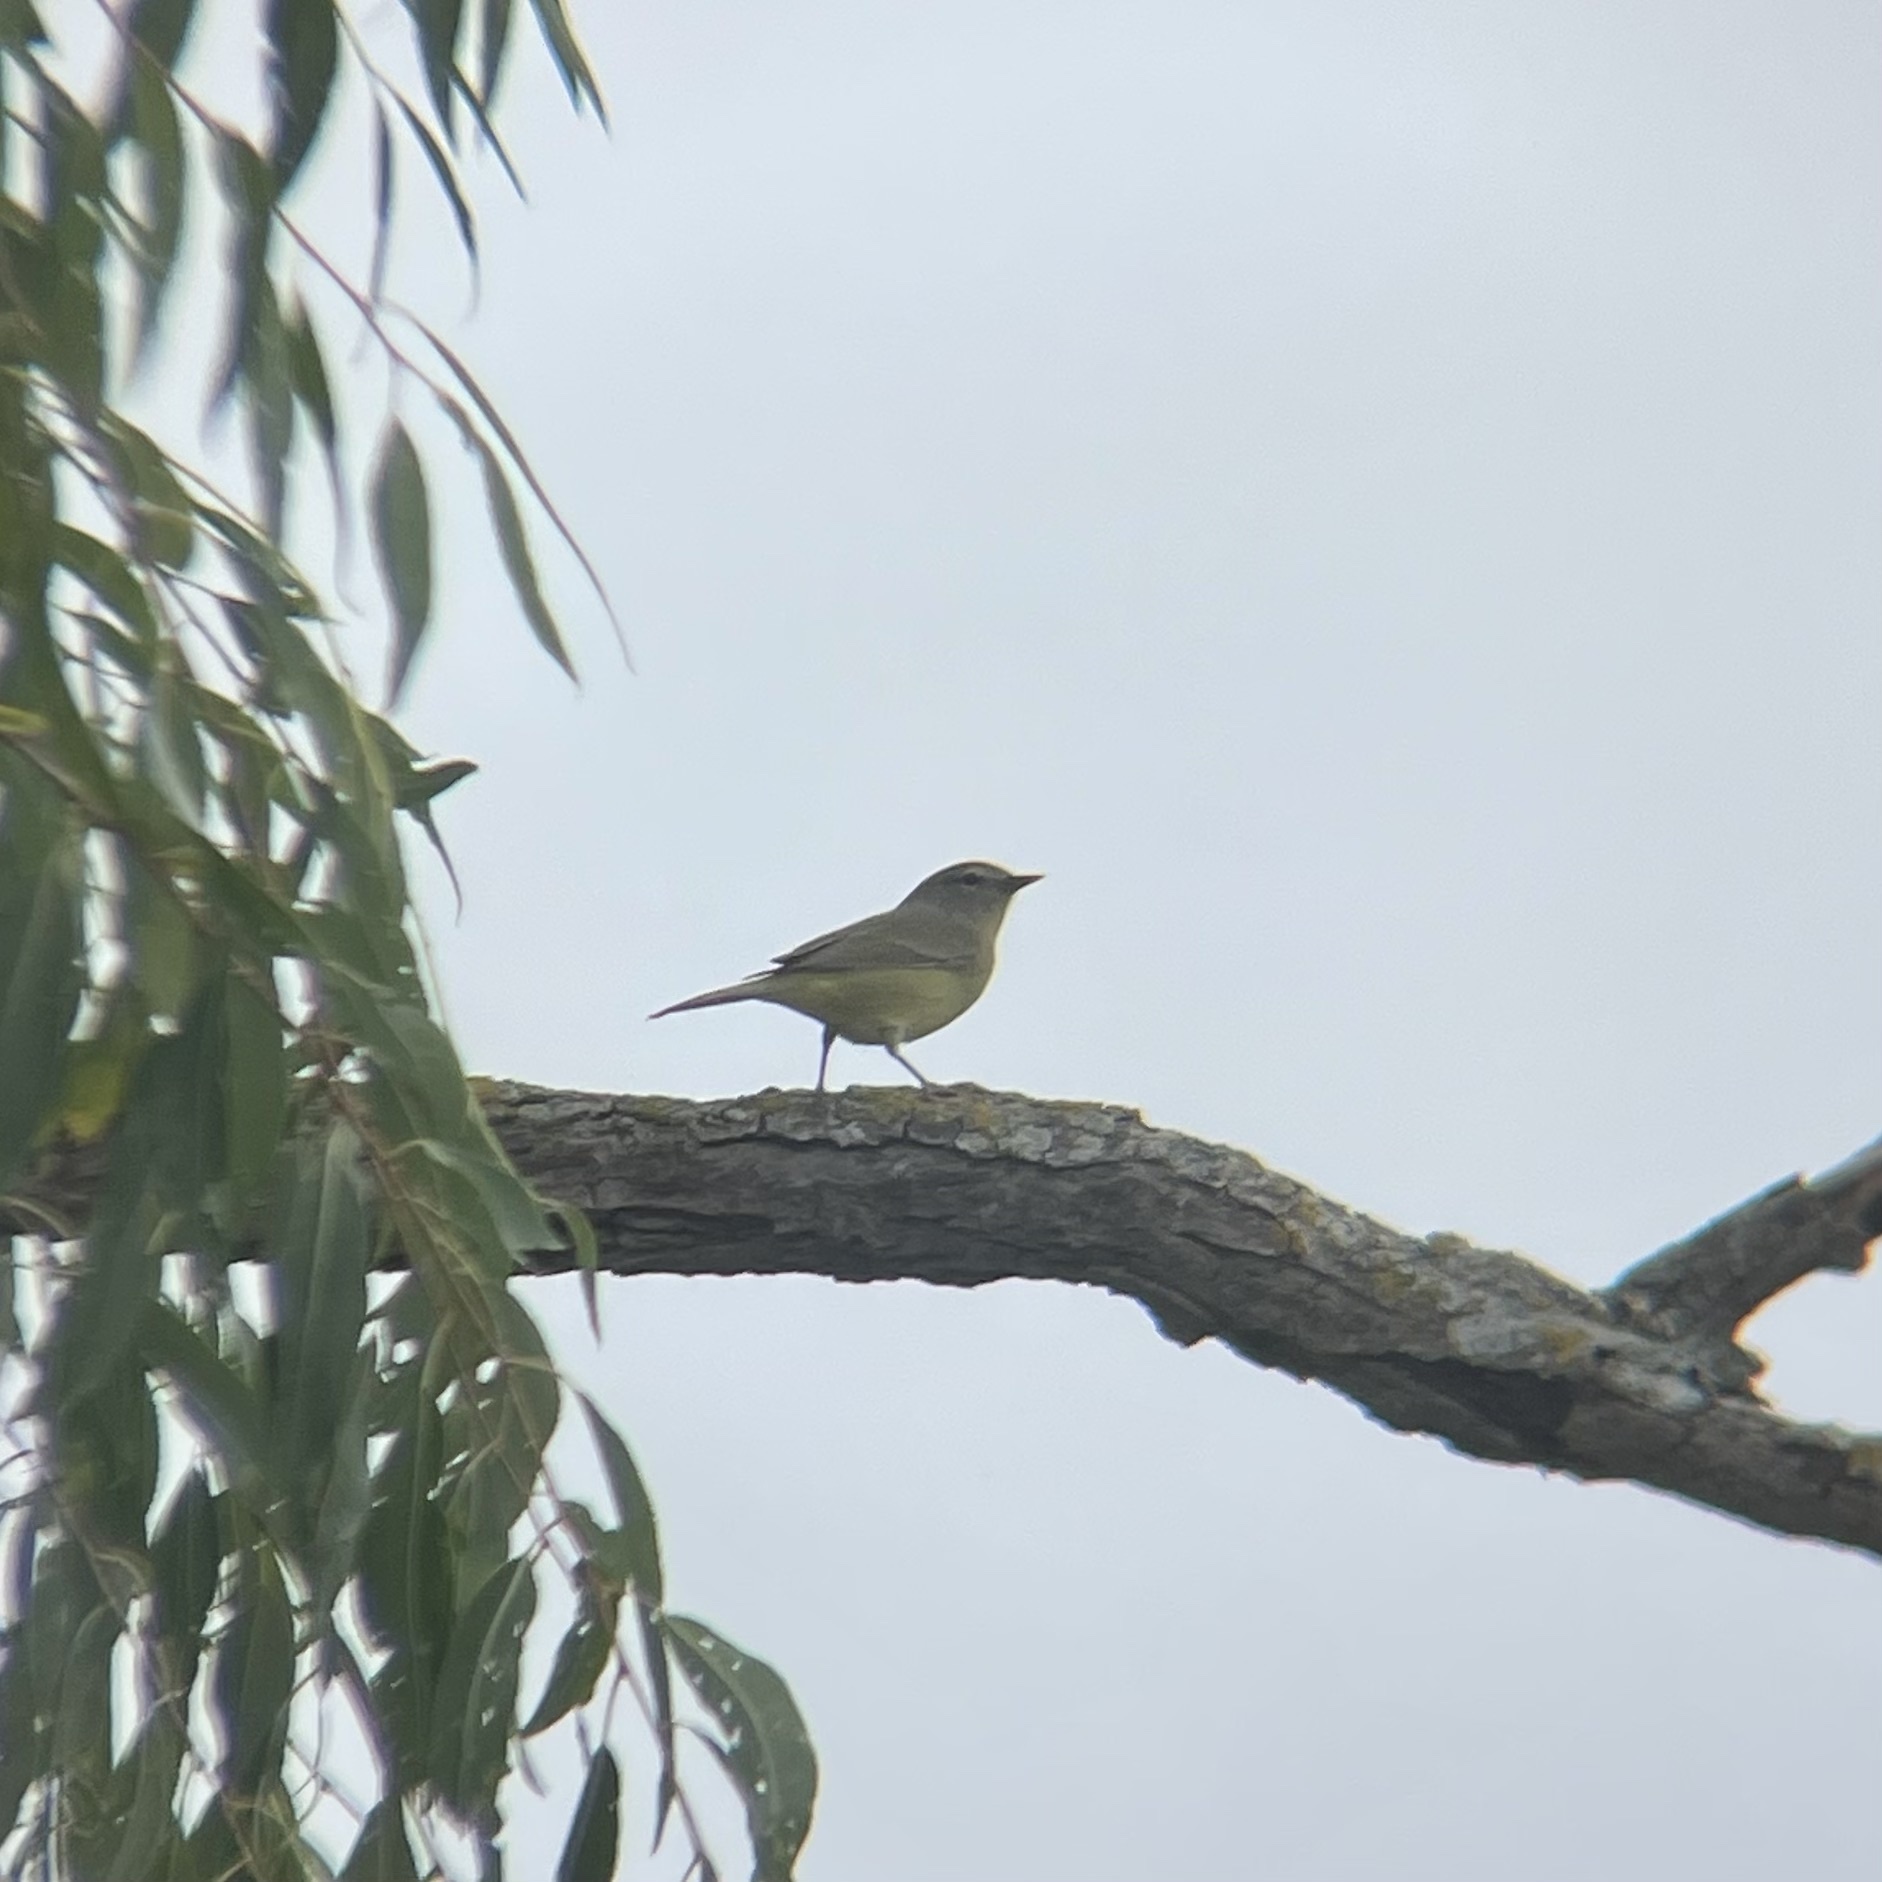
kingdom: Animalia
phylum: Chordata
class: Aves
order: Passeriformes
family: Parulidae
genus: Leiothlypis
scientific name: Leiothlypis celata
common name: Orange-crowned warbler
